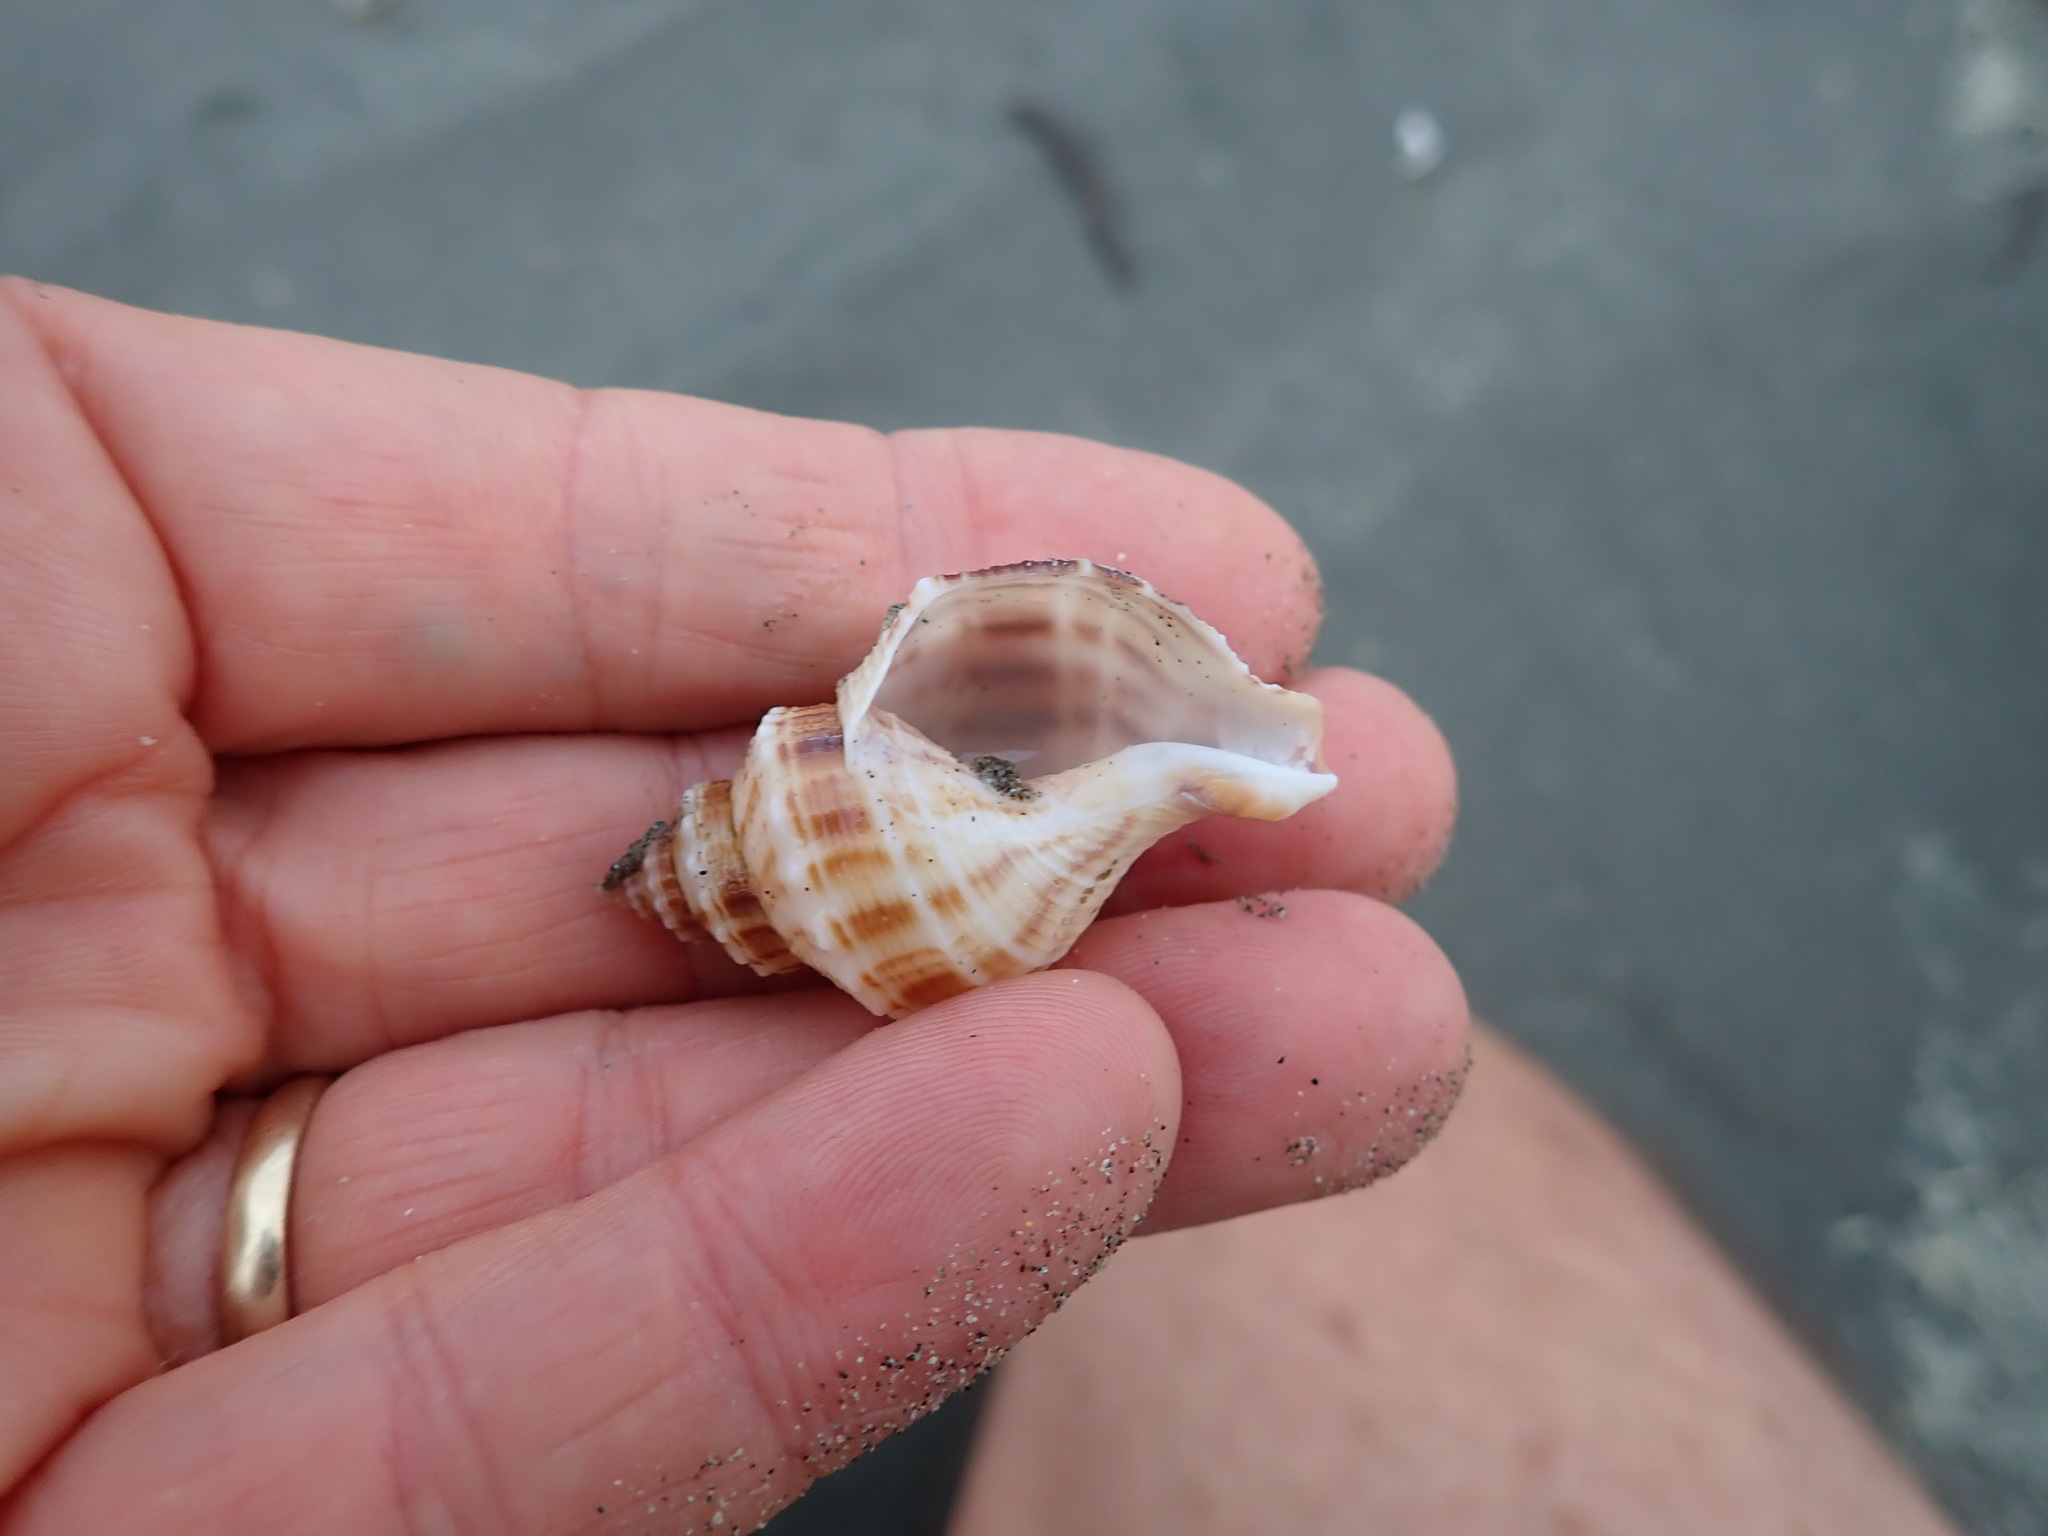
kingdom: Animalia
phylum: Mollusca
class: Gastropoda
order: Neogastropoda
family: Prosiphonidae
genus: Austrofusus
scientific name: Austrofusus glans
